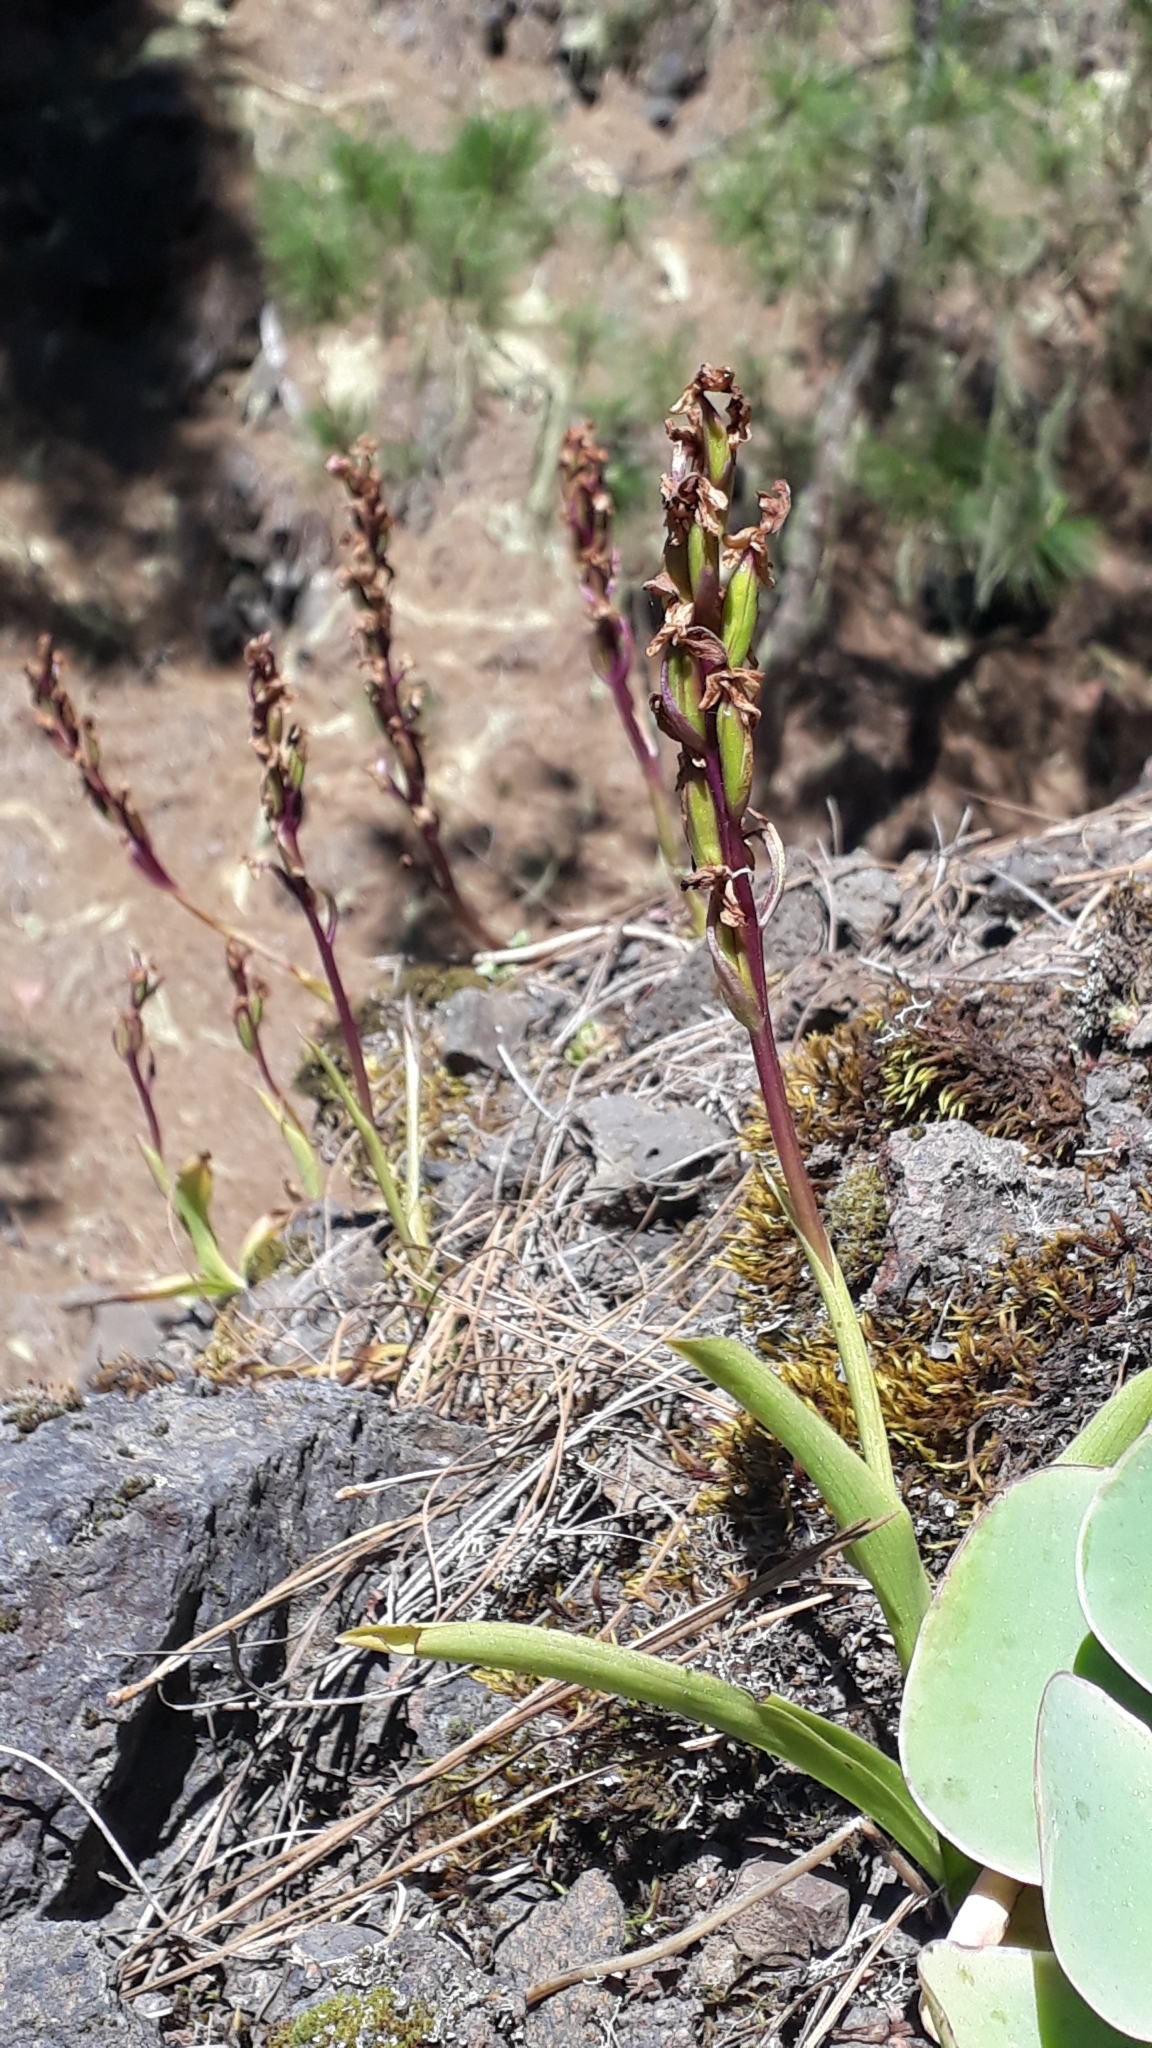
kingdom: Plantae
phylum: Tracheophyta
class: Liliopsida
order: Asparagales
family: Orchidaceae
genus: Orchis
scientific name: Orchis canariensis
